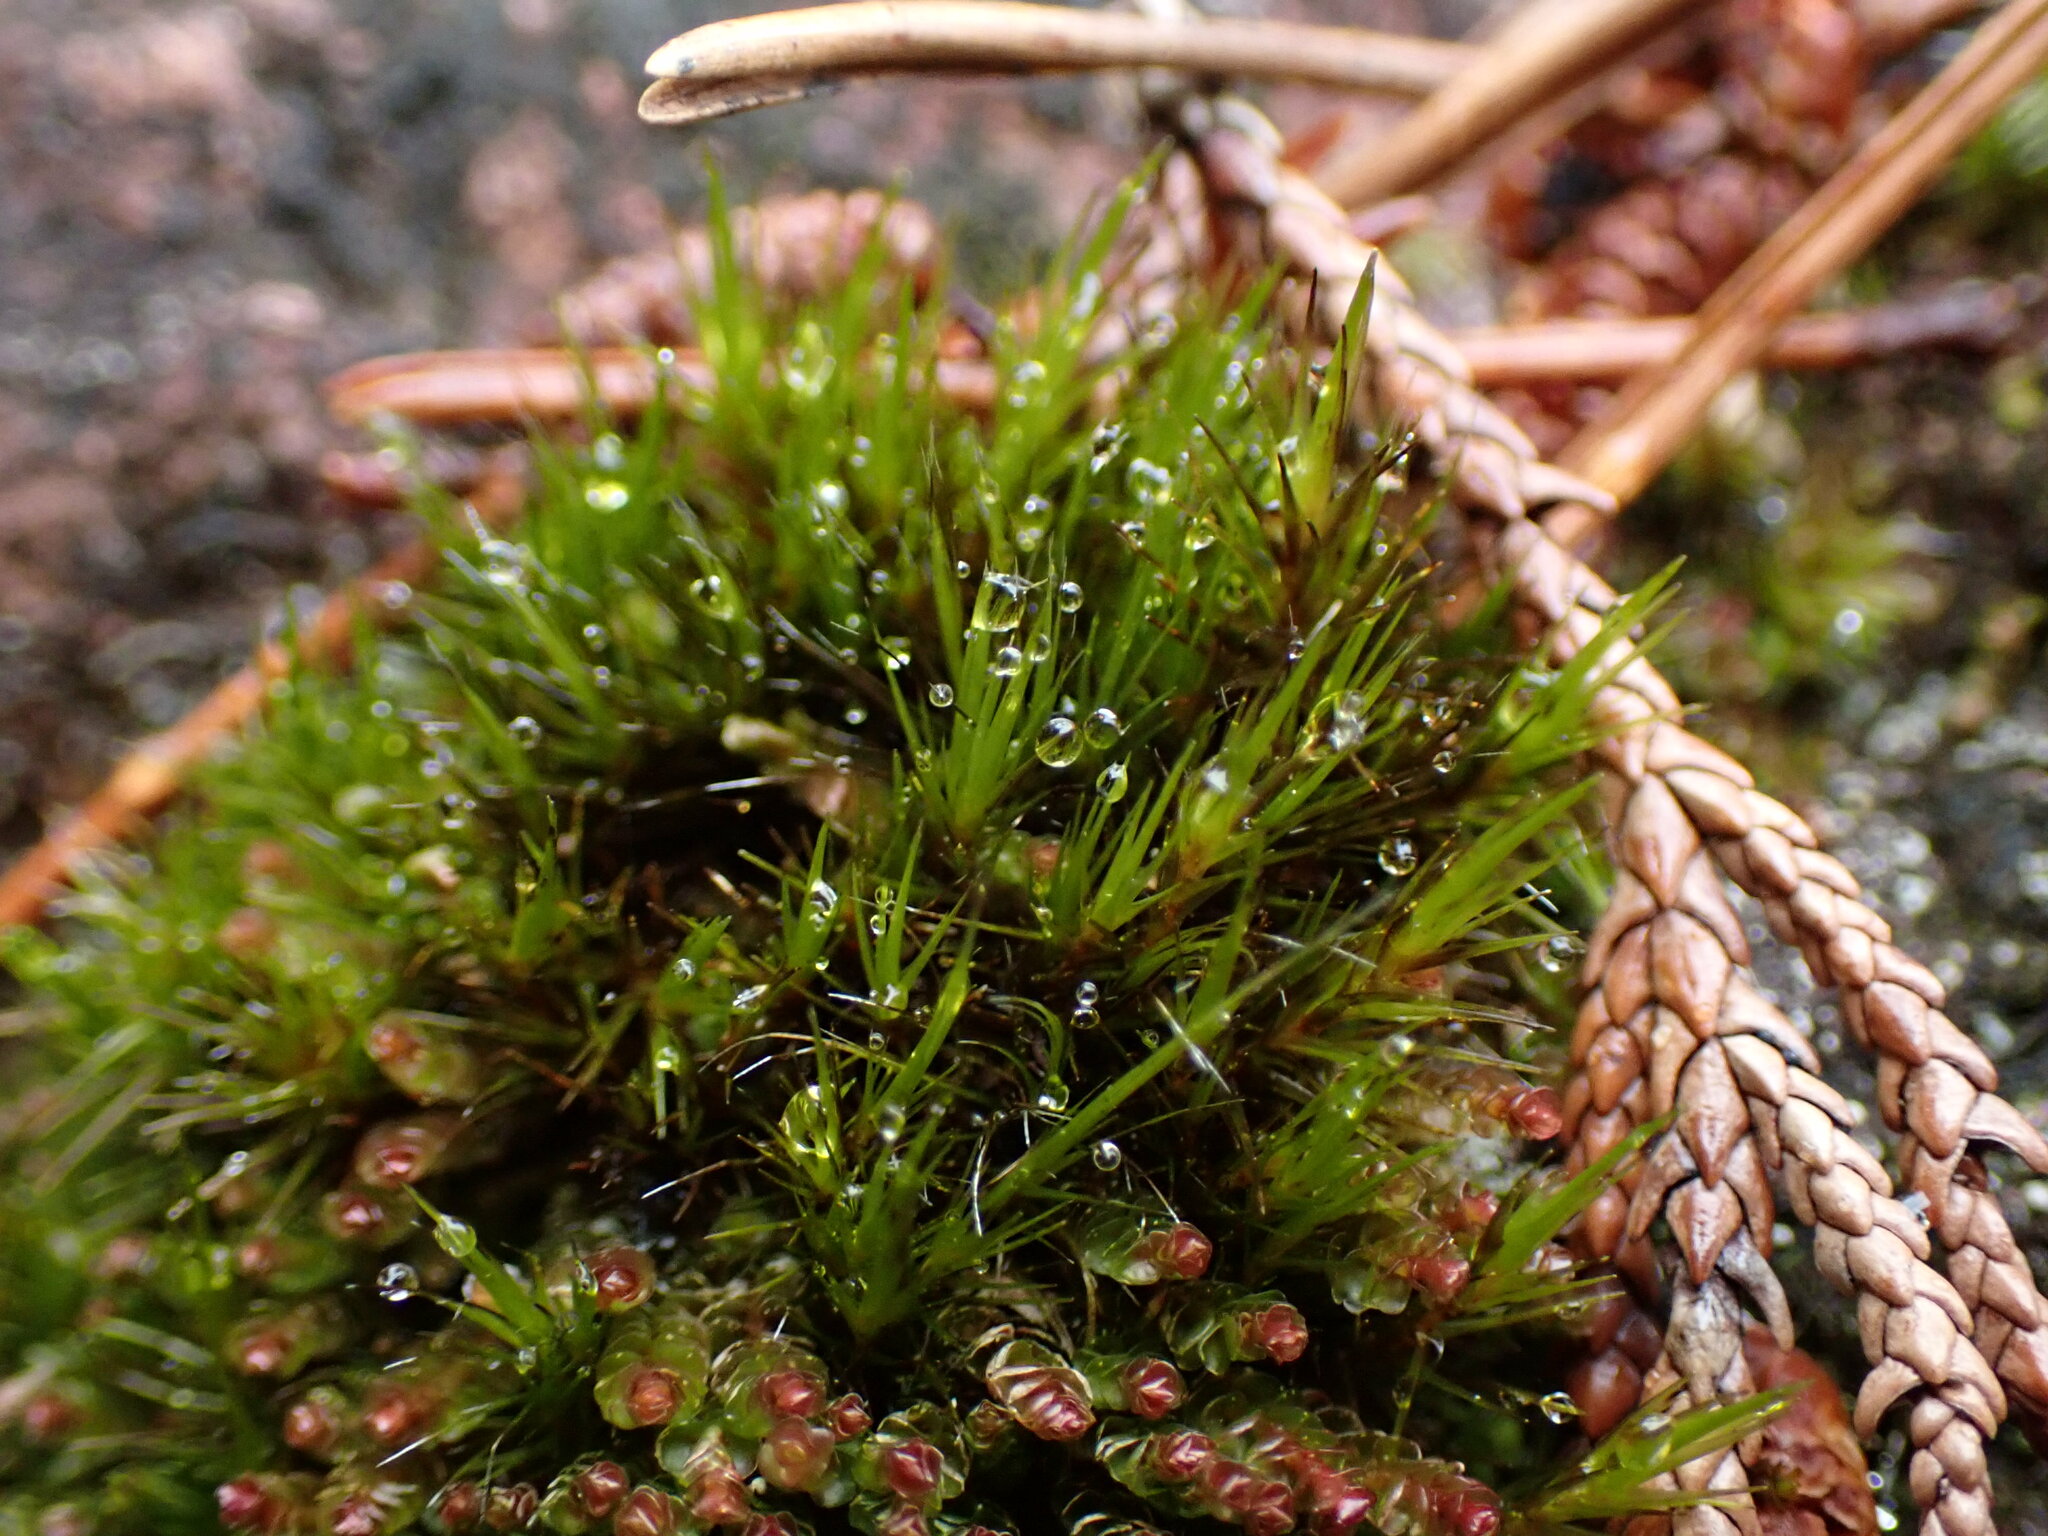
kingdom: Plantae
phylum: Bryophyta
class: Bryopsida
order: Dicranales
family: Leucobryaceae
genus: Campylopus
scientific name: Campylopus atrovirens
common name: Bristly swan-neck moss
